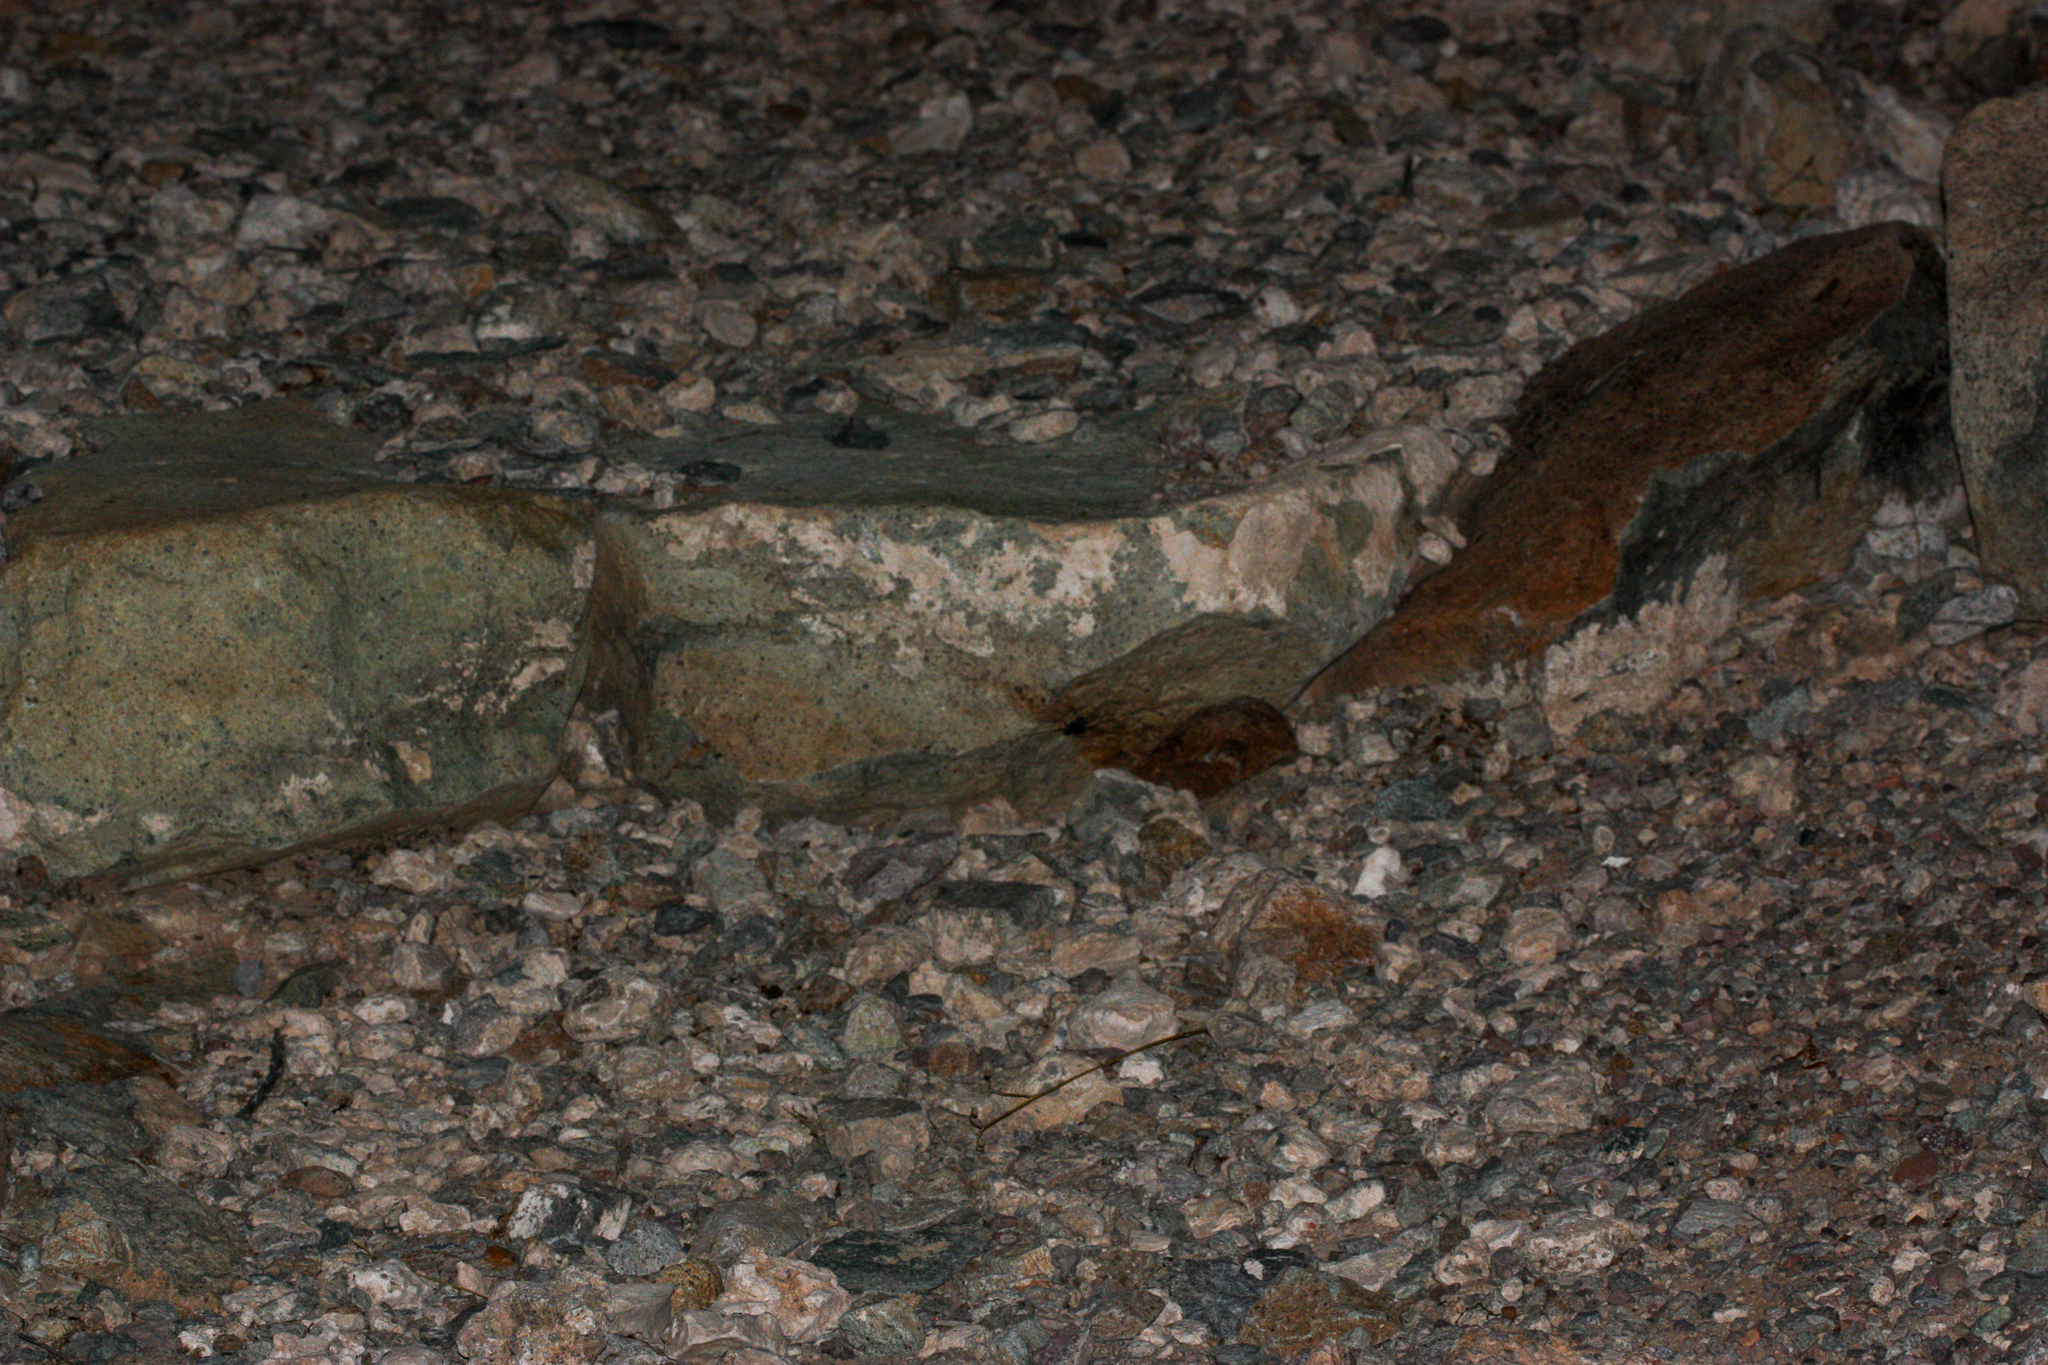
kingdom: Animalia
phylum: Arthropoda
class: Arachnida
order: Amblypygi
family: Phrynidae
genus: Paraphrynus
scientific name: Paraphrynus carolynae
